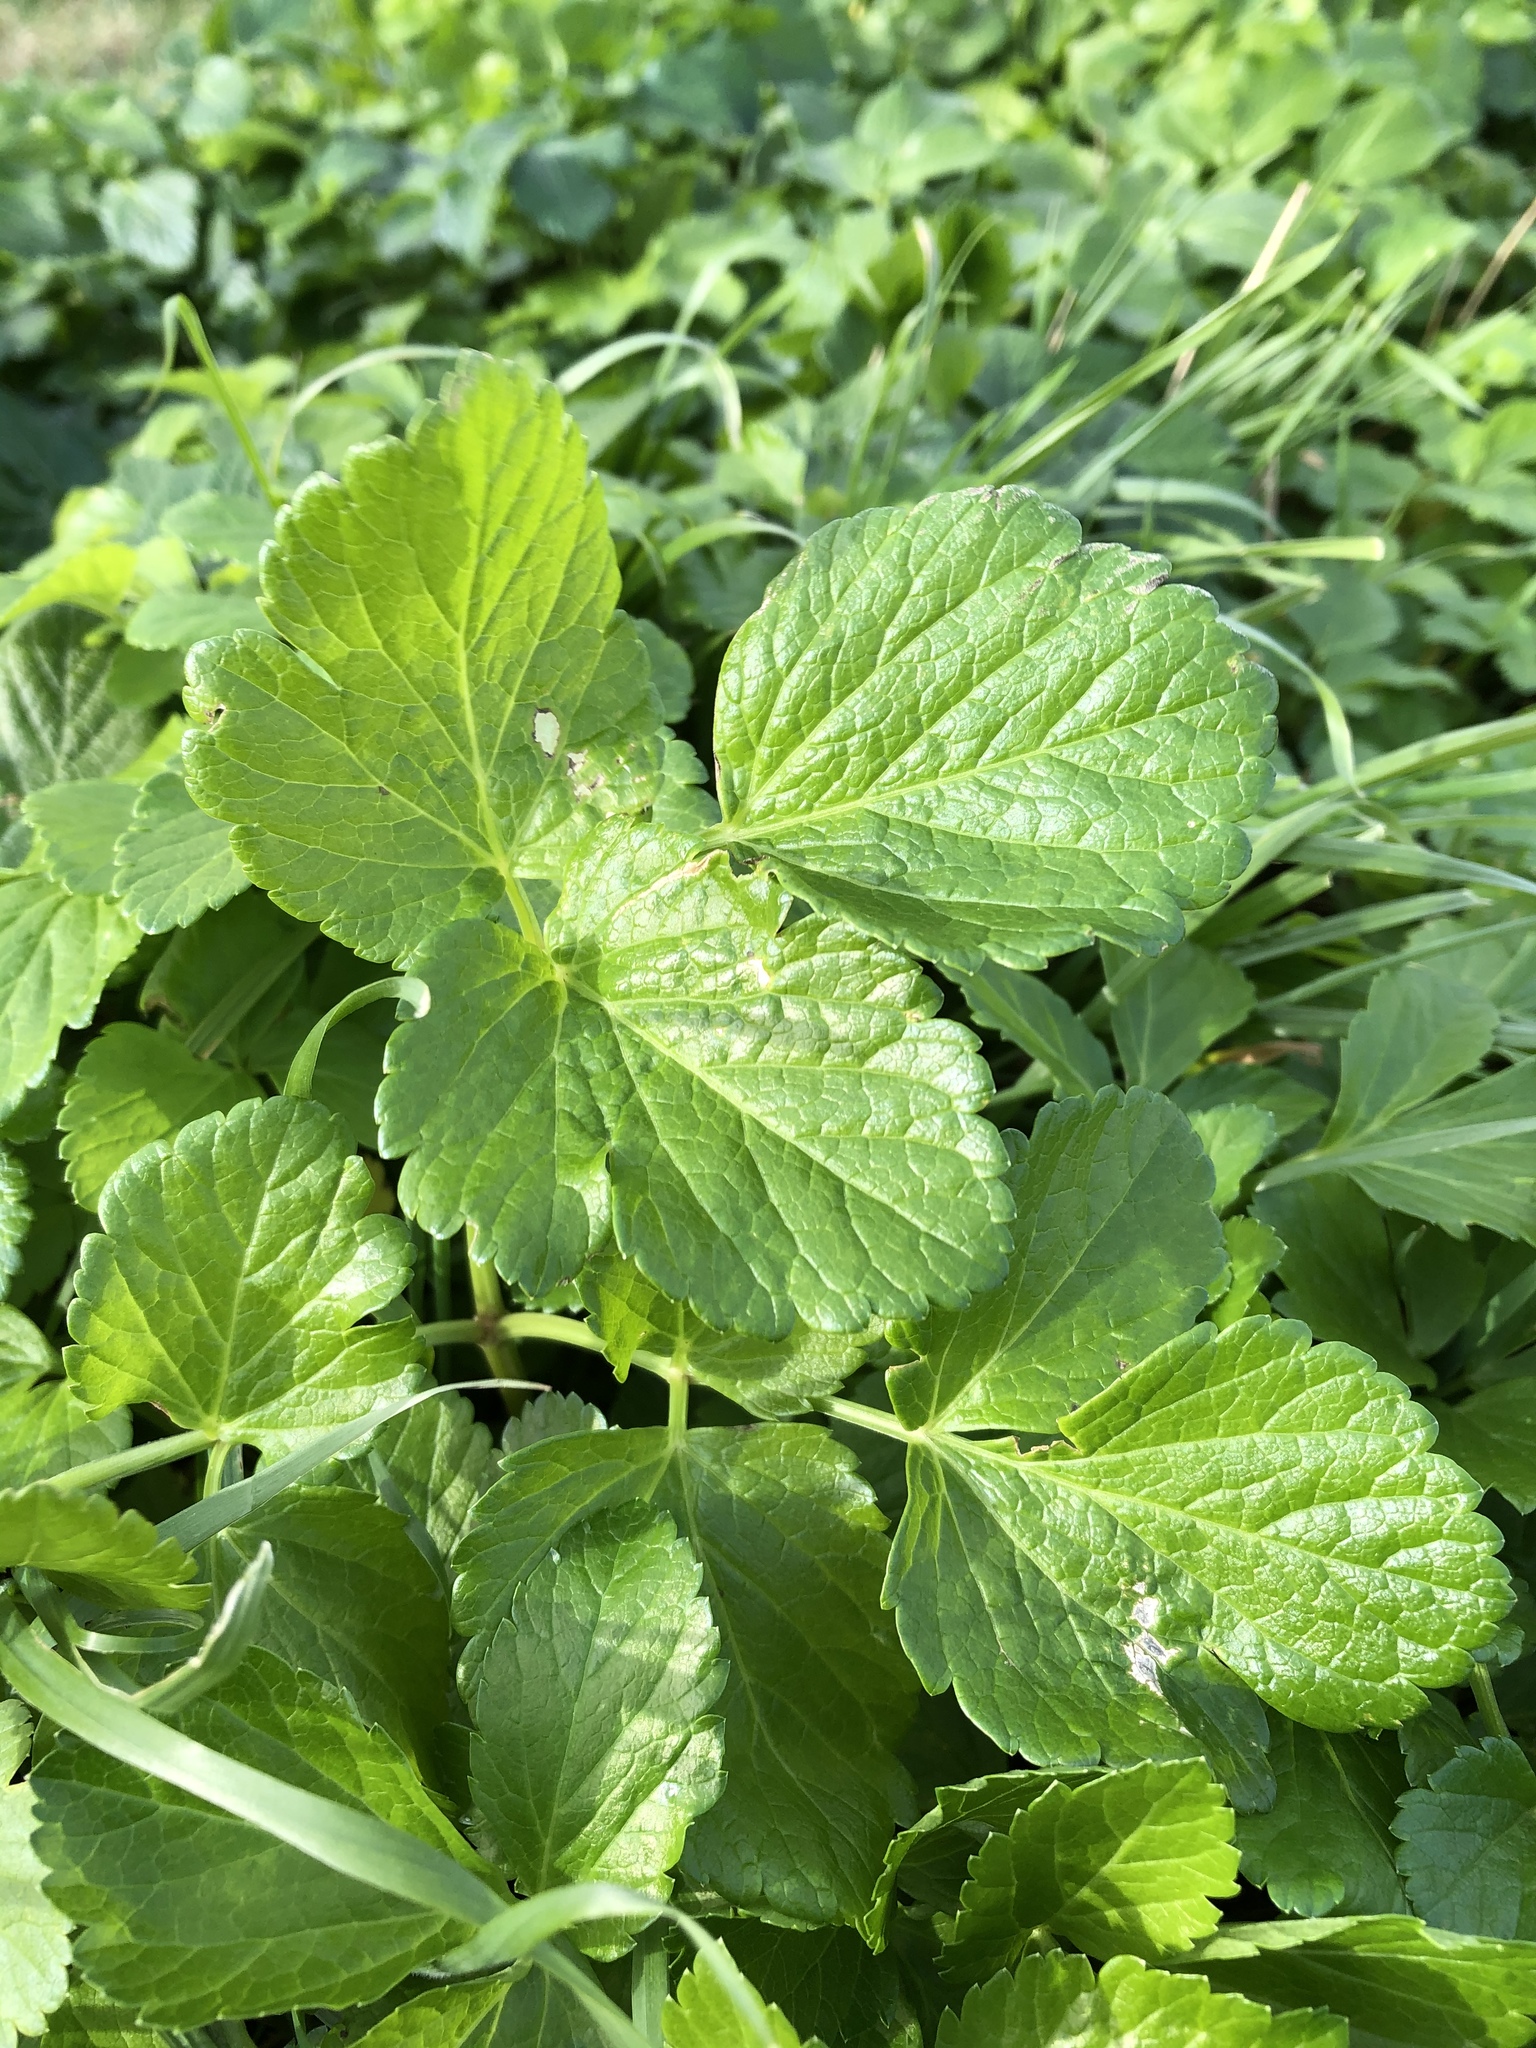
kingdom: Plantae
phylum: Tracheophyta
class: Magnoliopsida
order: Apiales
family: Apiaceae
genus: Smyrnium
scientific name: Smyrnium olusatrum
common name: Alexanders
